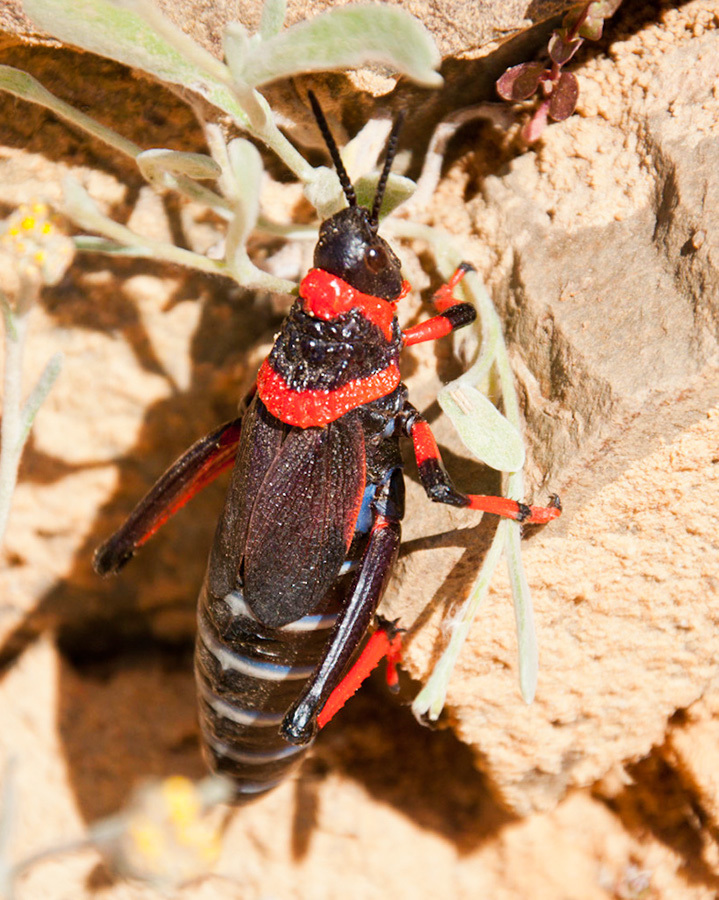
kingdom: Animalia
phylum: Arthropoda
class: Insecta
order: Orthoptera
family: Pyrgomorphidae
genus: Dictyophorus
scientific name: Dictyophorus spumans
